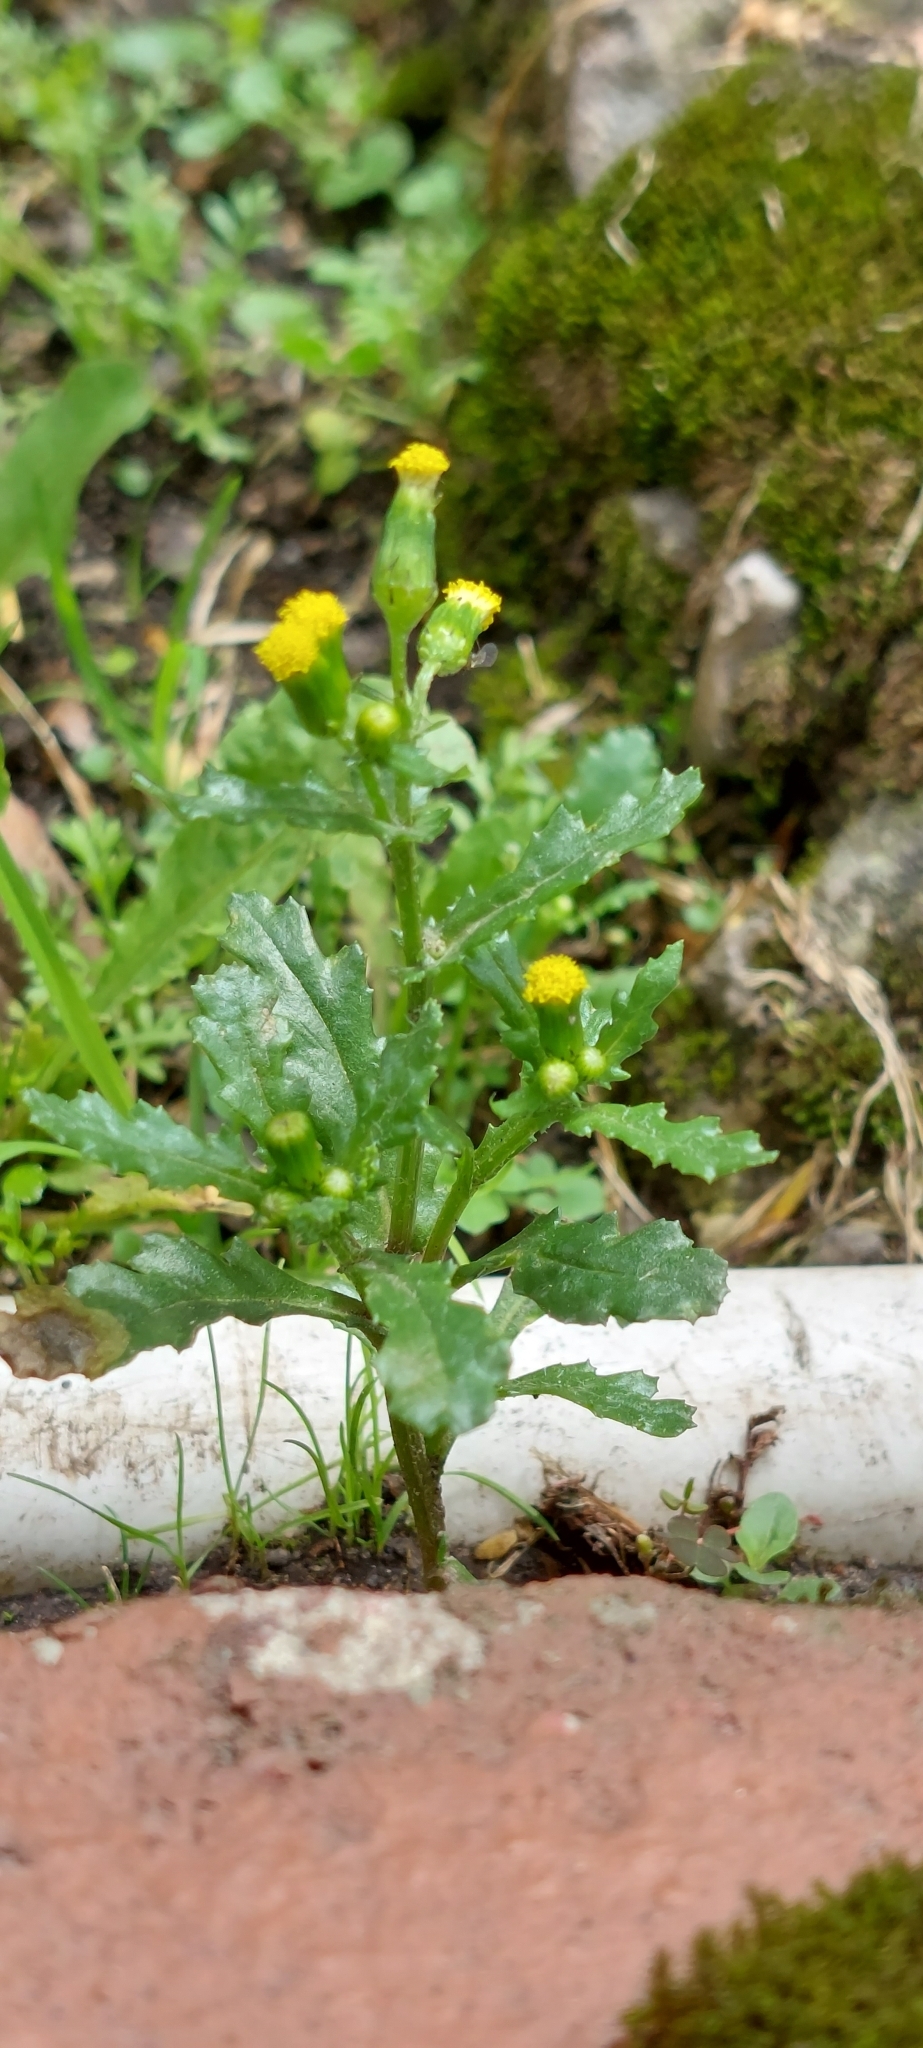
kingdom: Plantae
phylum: Tracheophyta
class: Magnoliopsida
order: Asterales
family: Asteraceae
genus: Senecio
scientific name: Senecio vulgaris
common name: Old-man-in-the-spring
